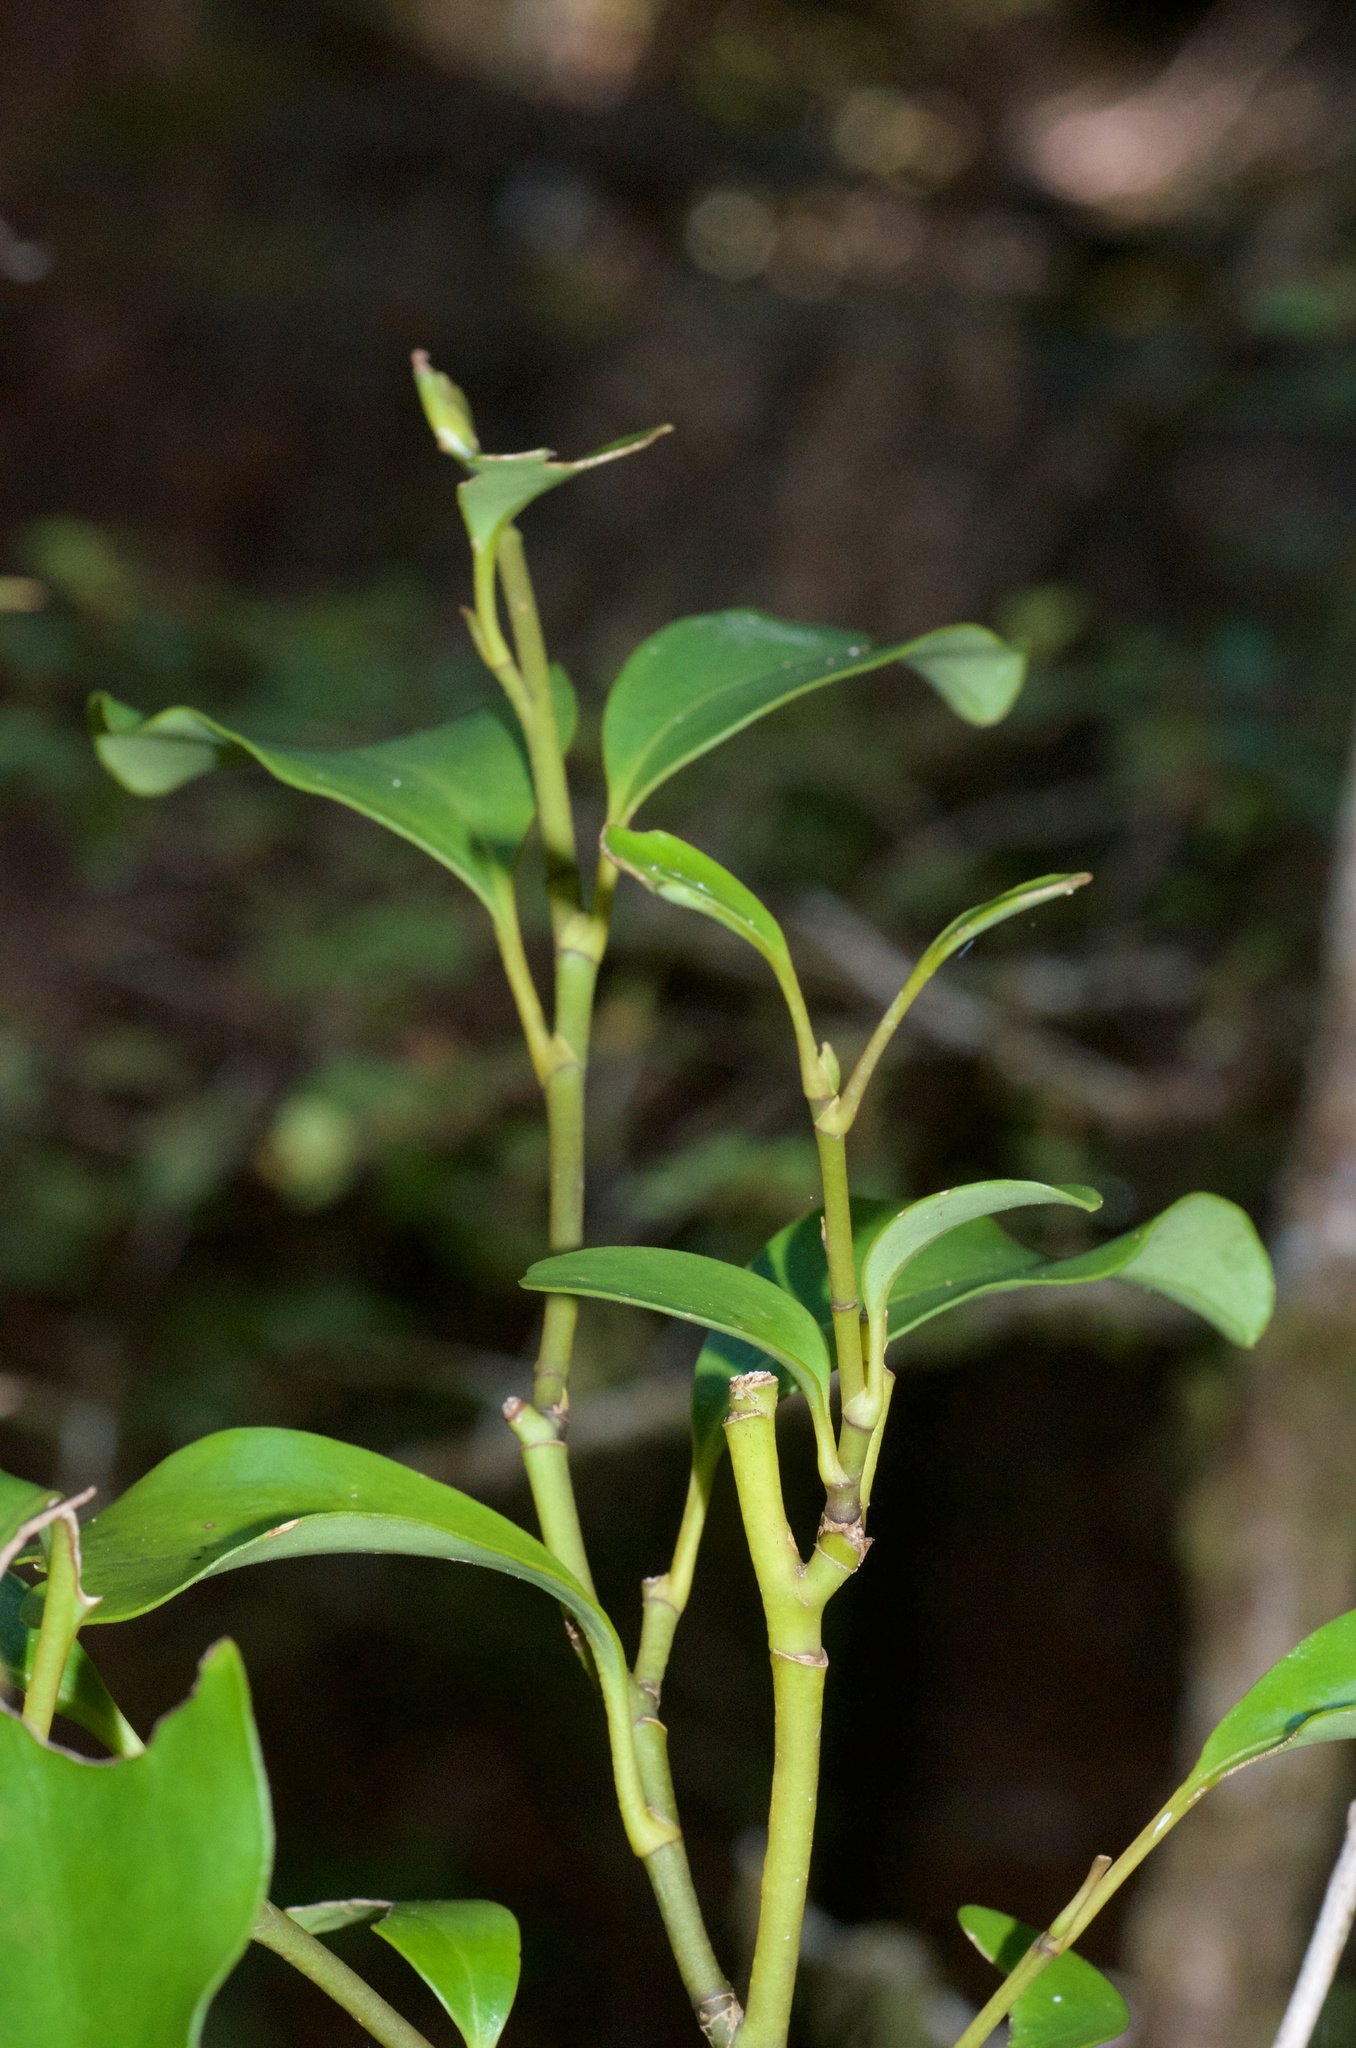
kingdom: Plantae
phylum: Tracheophyta
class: Magnoliopsida
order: Apiales
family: Griseliniaceae
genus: Griselinia
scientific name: Griselinia littoralis
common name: New zealand broadleaf
